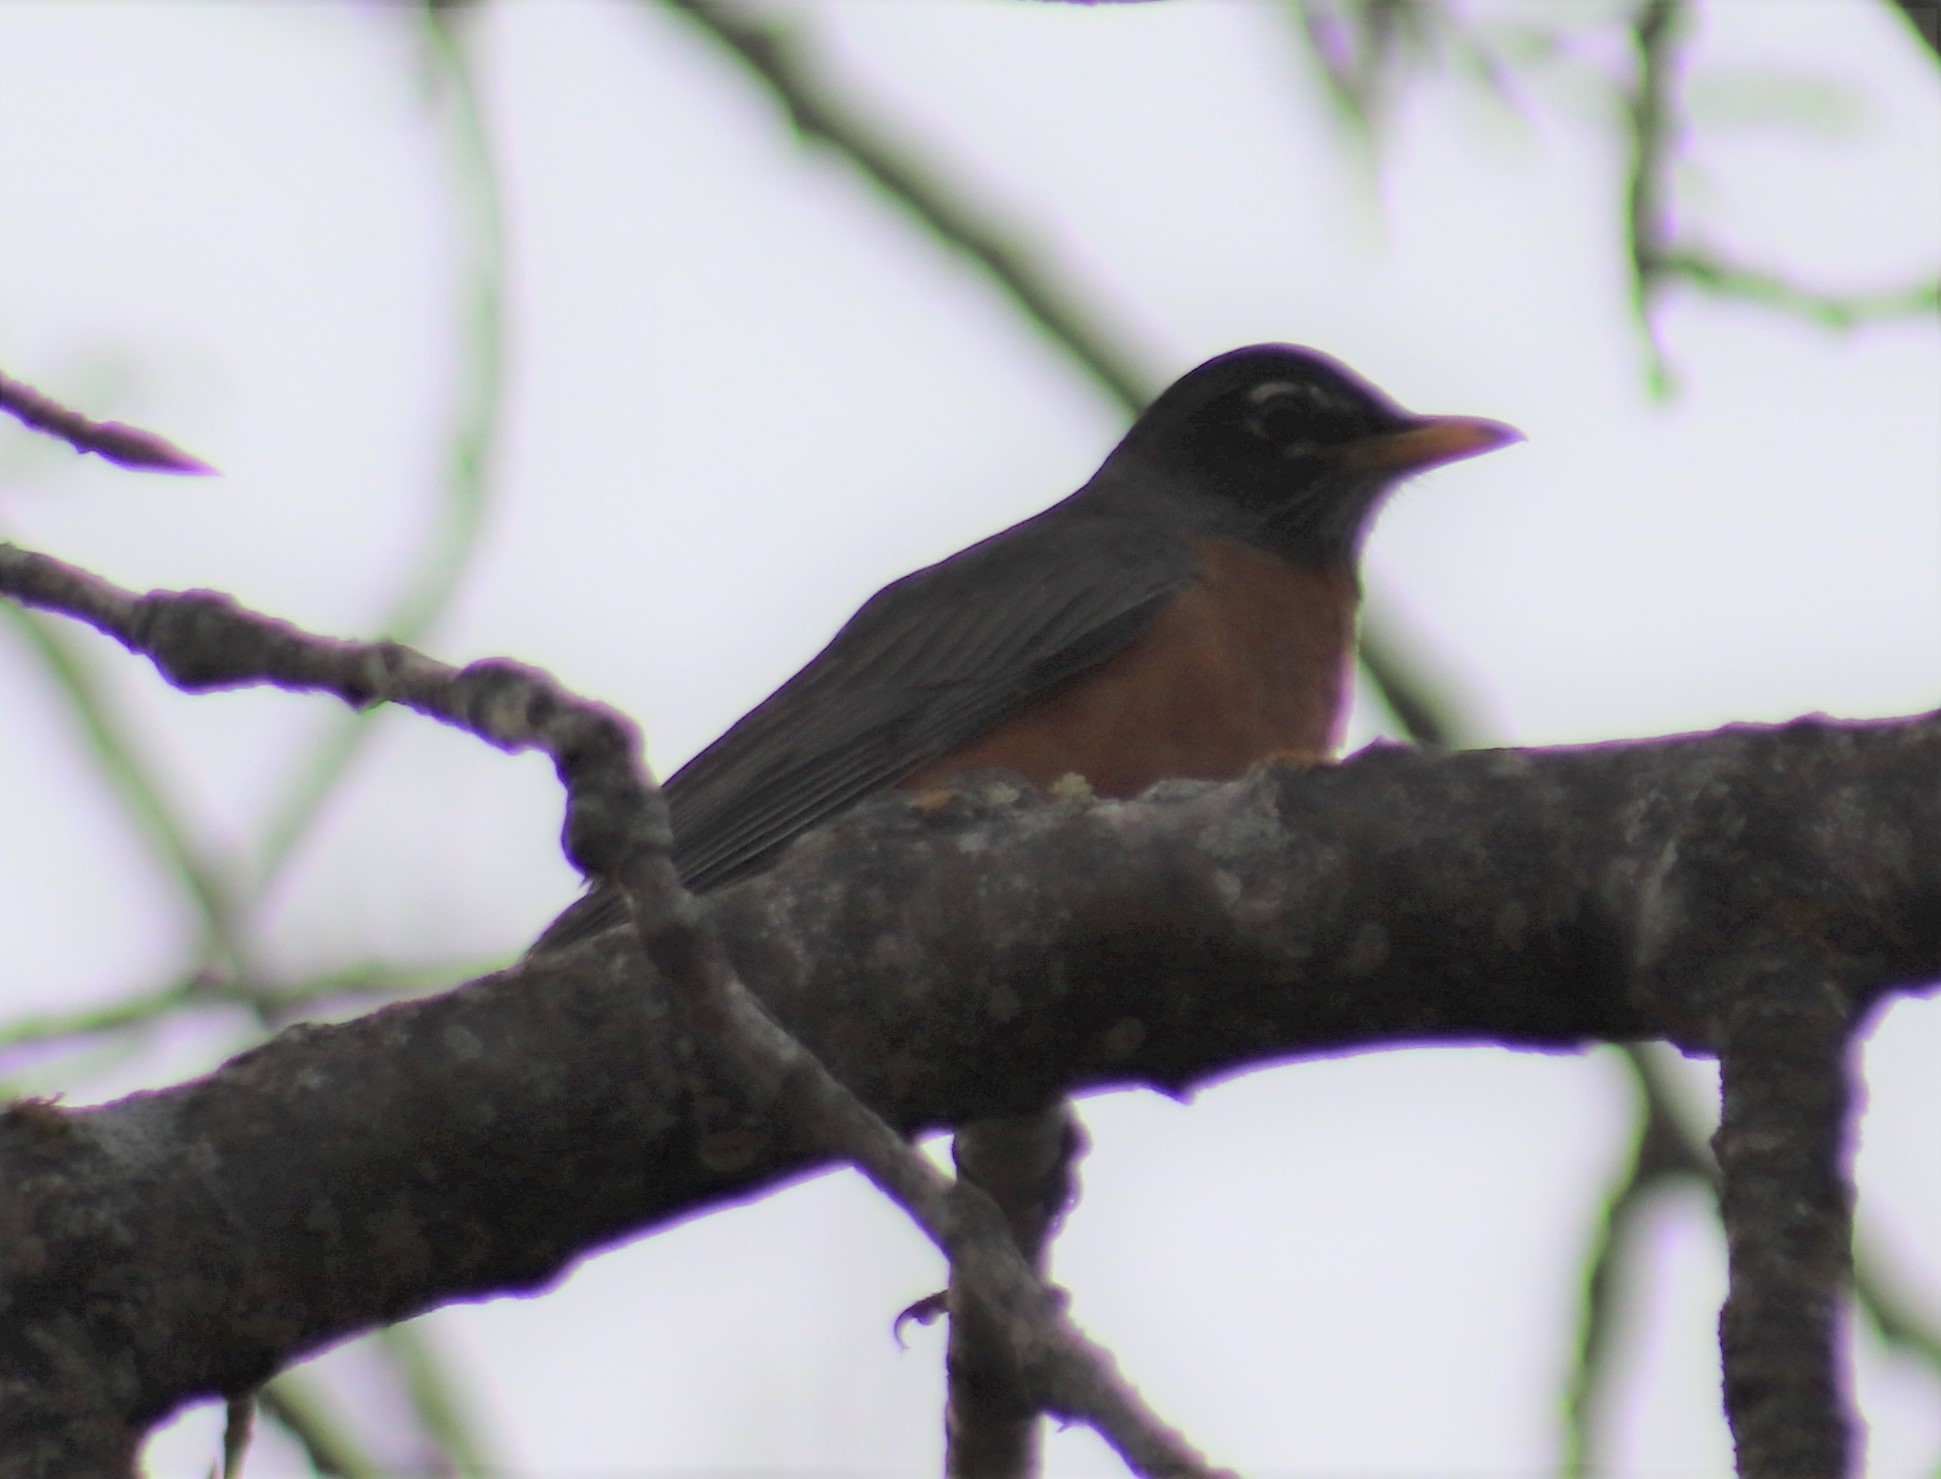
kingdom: Animalia
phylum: Chordata
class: Aves
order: Passeriformes
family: Turdidae
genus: Turdus
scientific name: Turdus migratorius
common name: American robin
